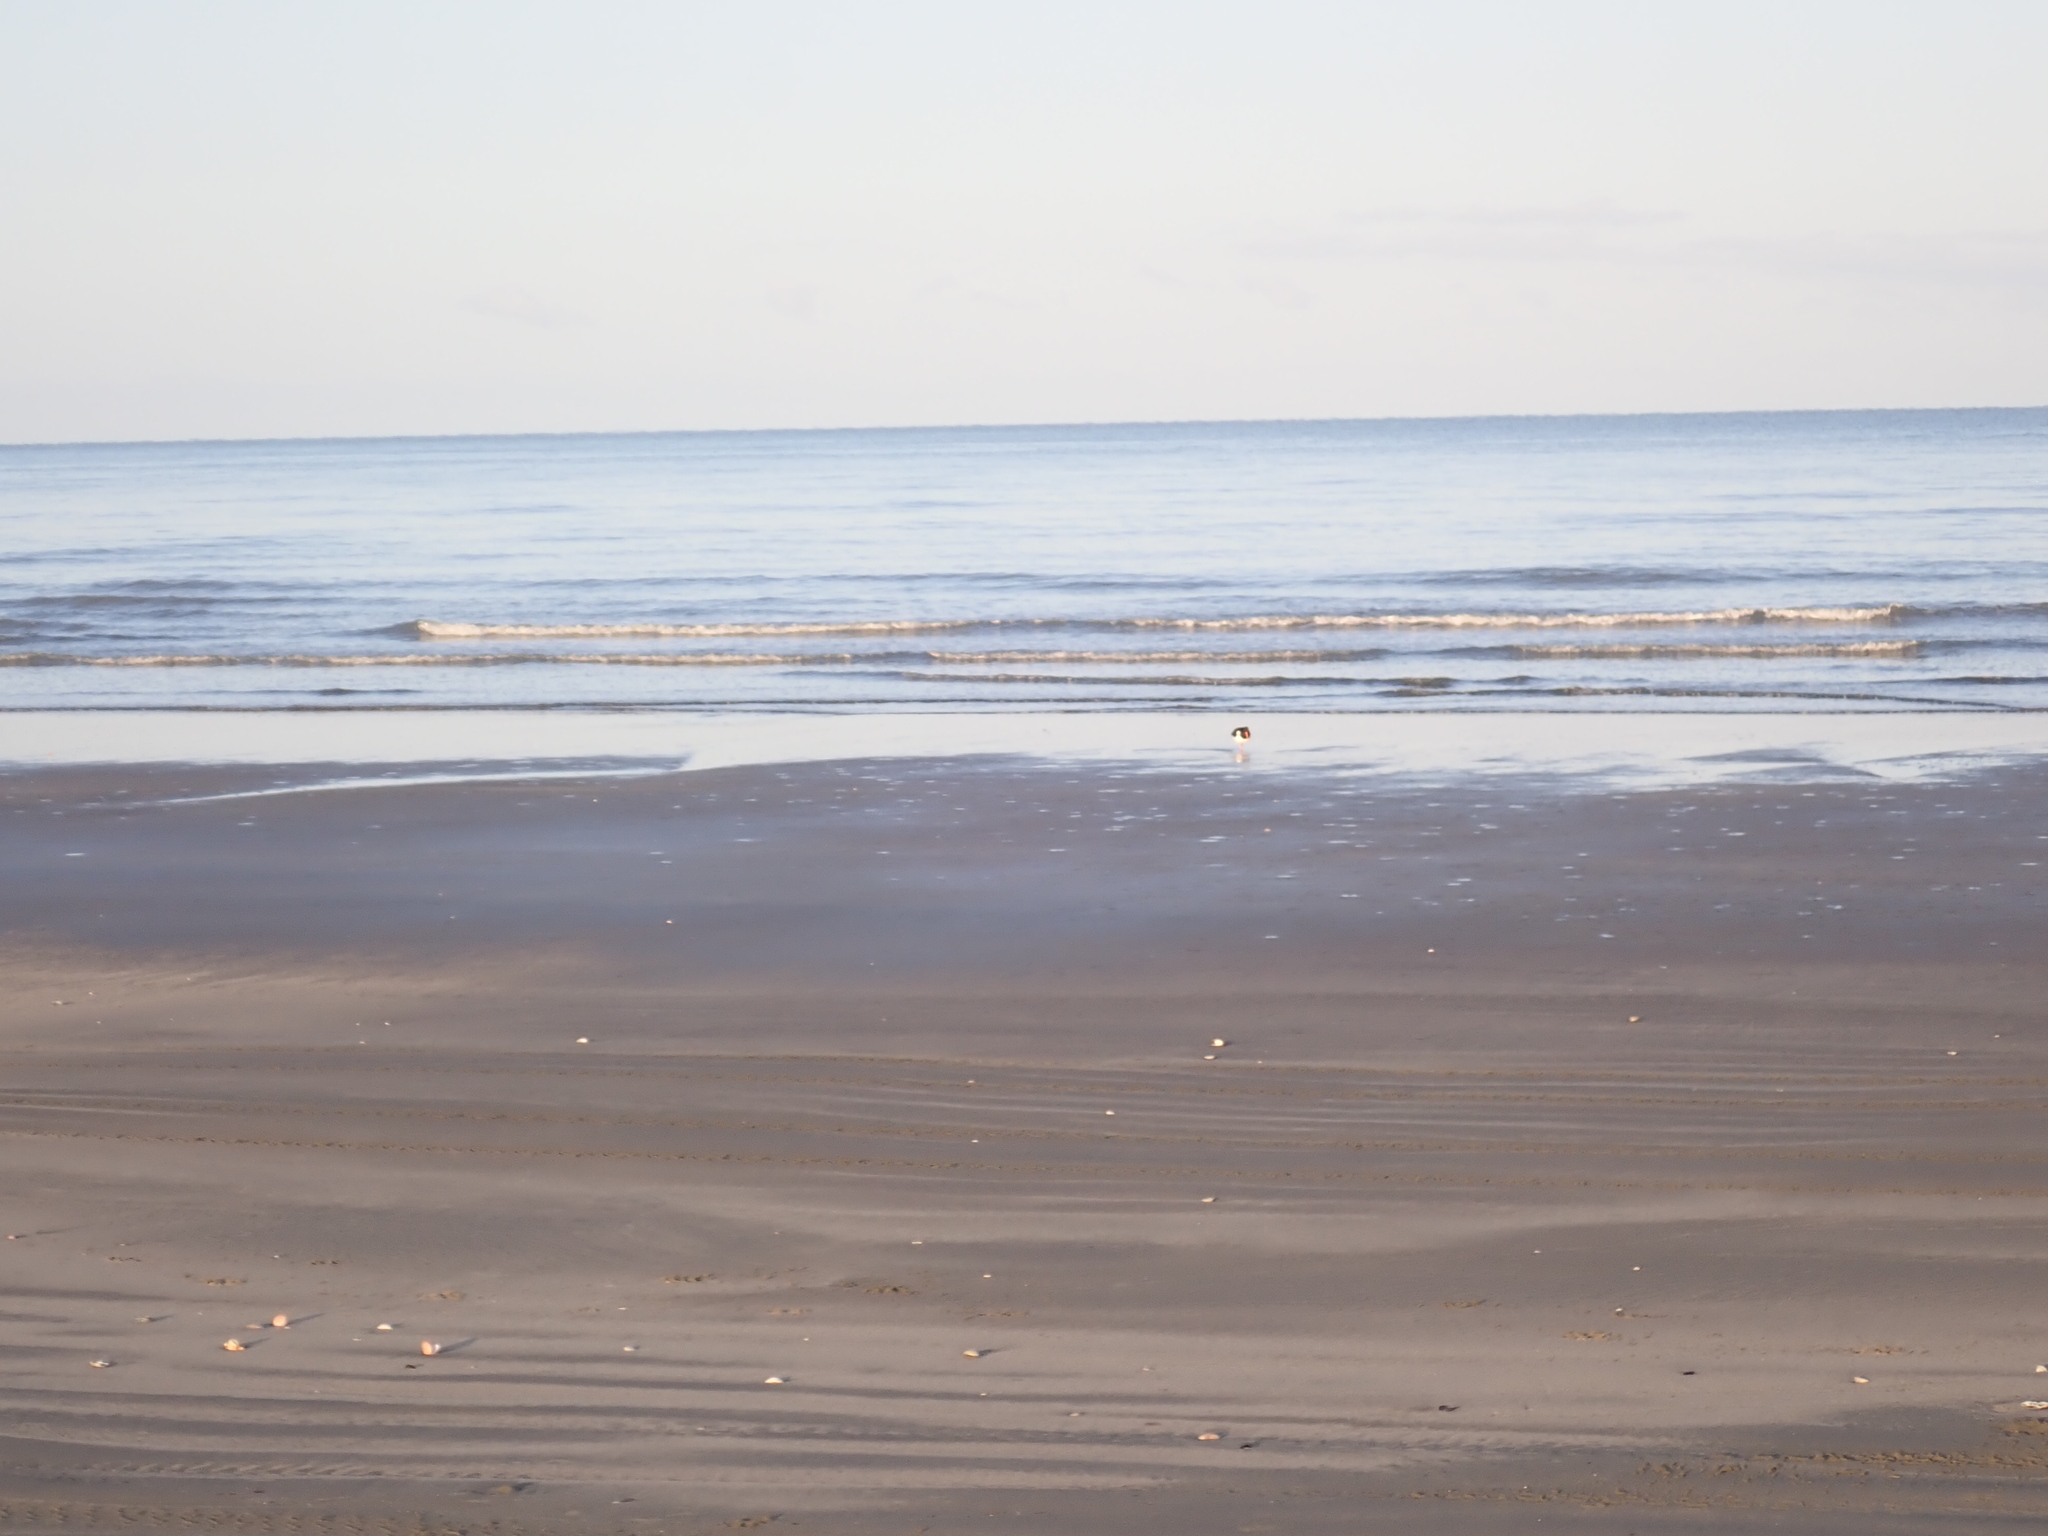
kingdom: Animalia
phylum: Chordata
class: Aves
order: Charadriiformes
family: Haematopodidae
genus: Haematopus
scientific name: Haematopus finschi
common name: South island oystercatcher
